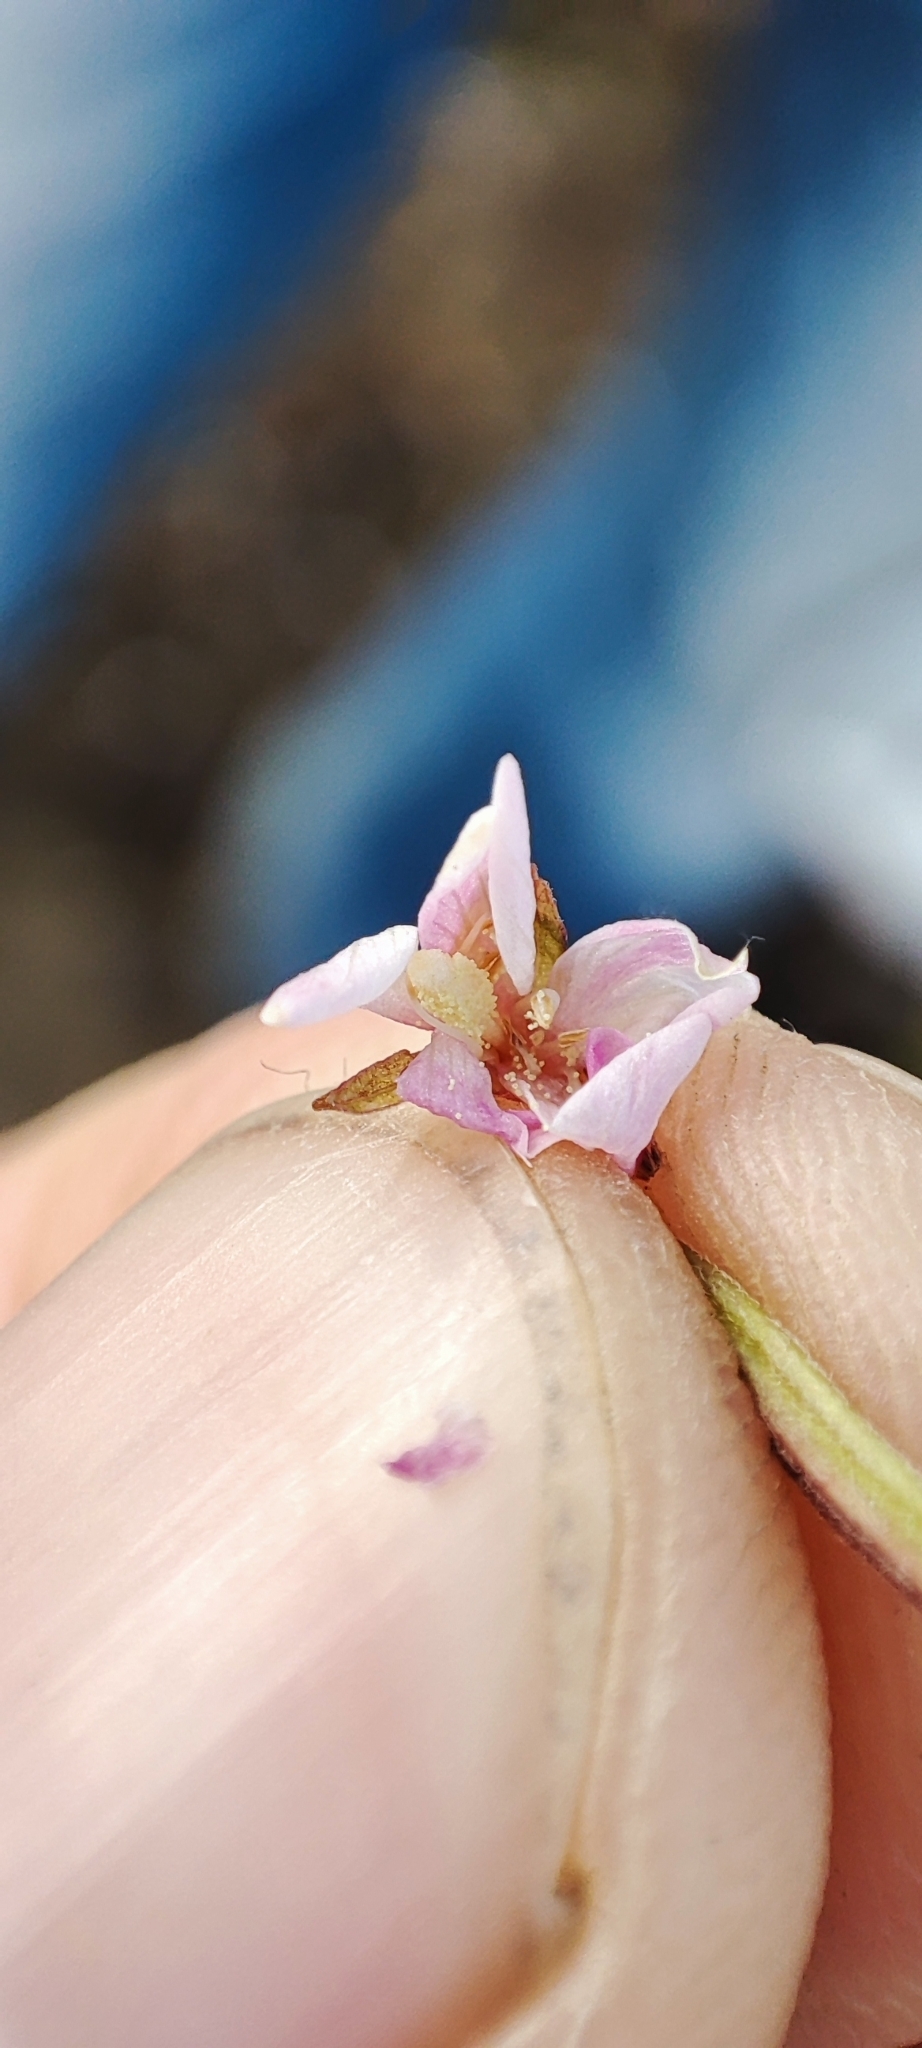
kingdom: Plantae
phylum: Tracheophyta
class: Magnoliopsida
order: Myrtales
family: Onagraceae
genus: Epilobium
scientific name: Epilobium ciliatum
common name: American willowherb
